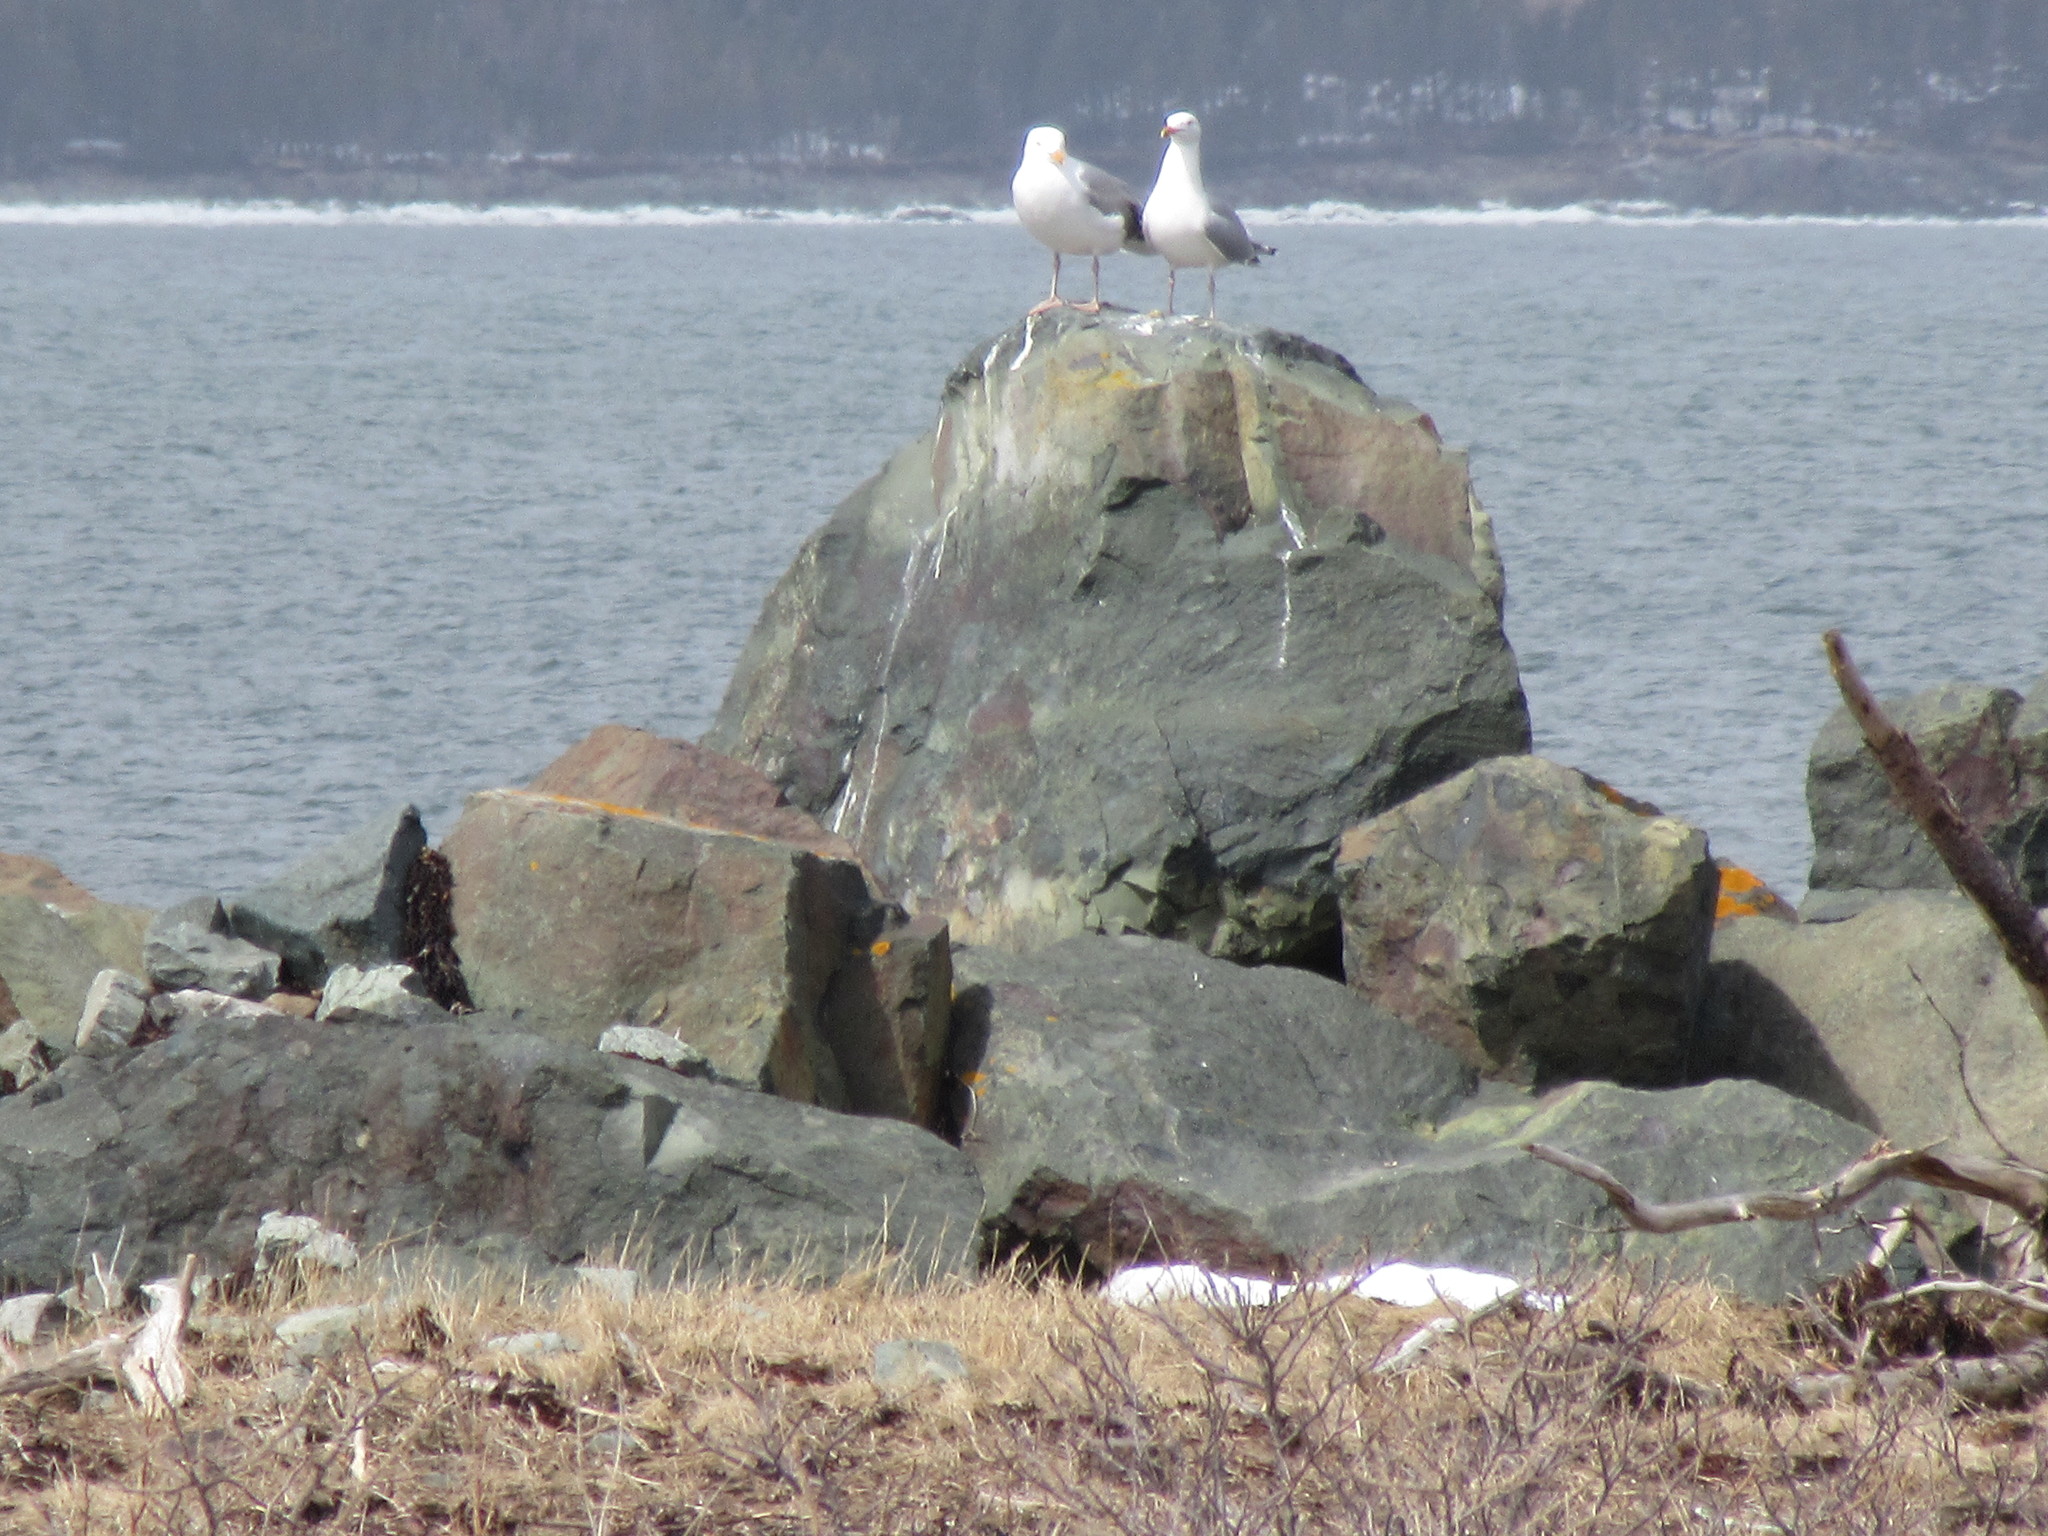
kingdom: Animalia
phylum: Chordata
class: Aves
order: Charadriiformes
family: Laridae
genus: Larus
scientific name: Larus argentatus
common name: Herring gull
